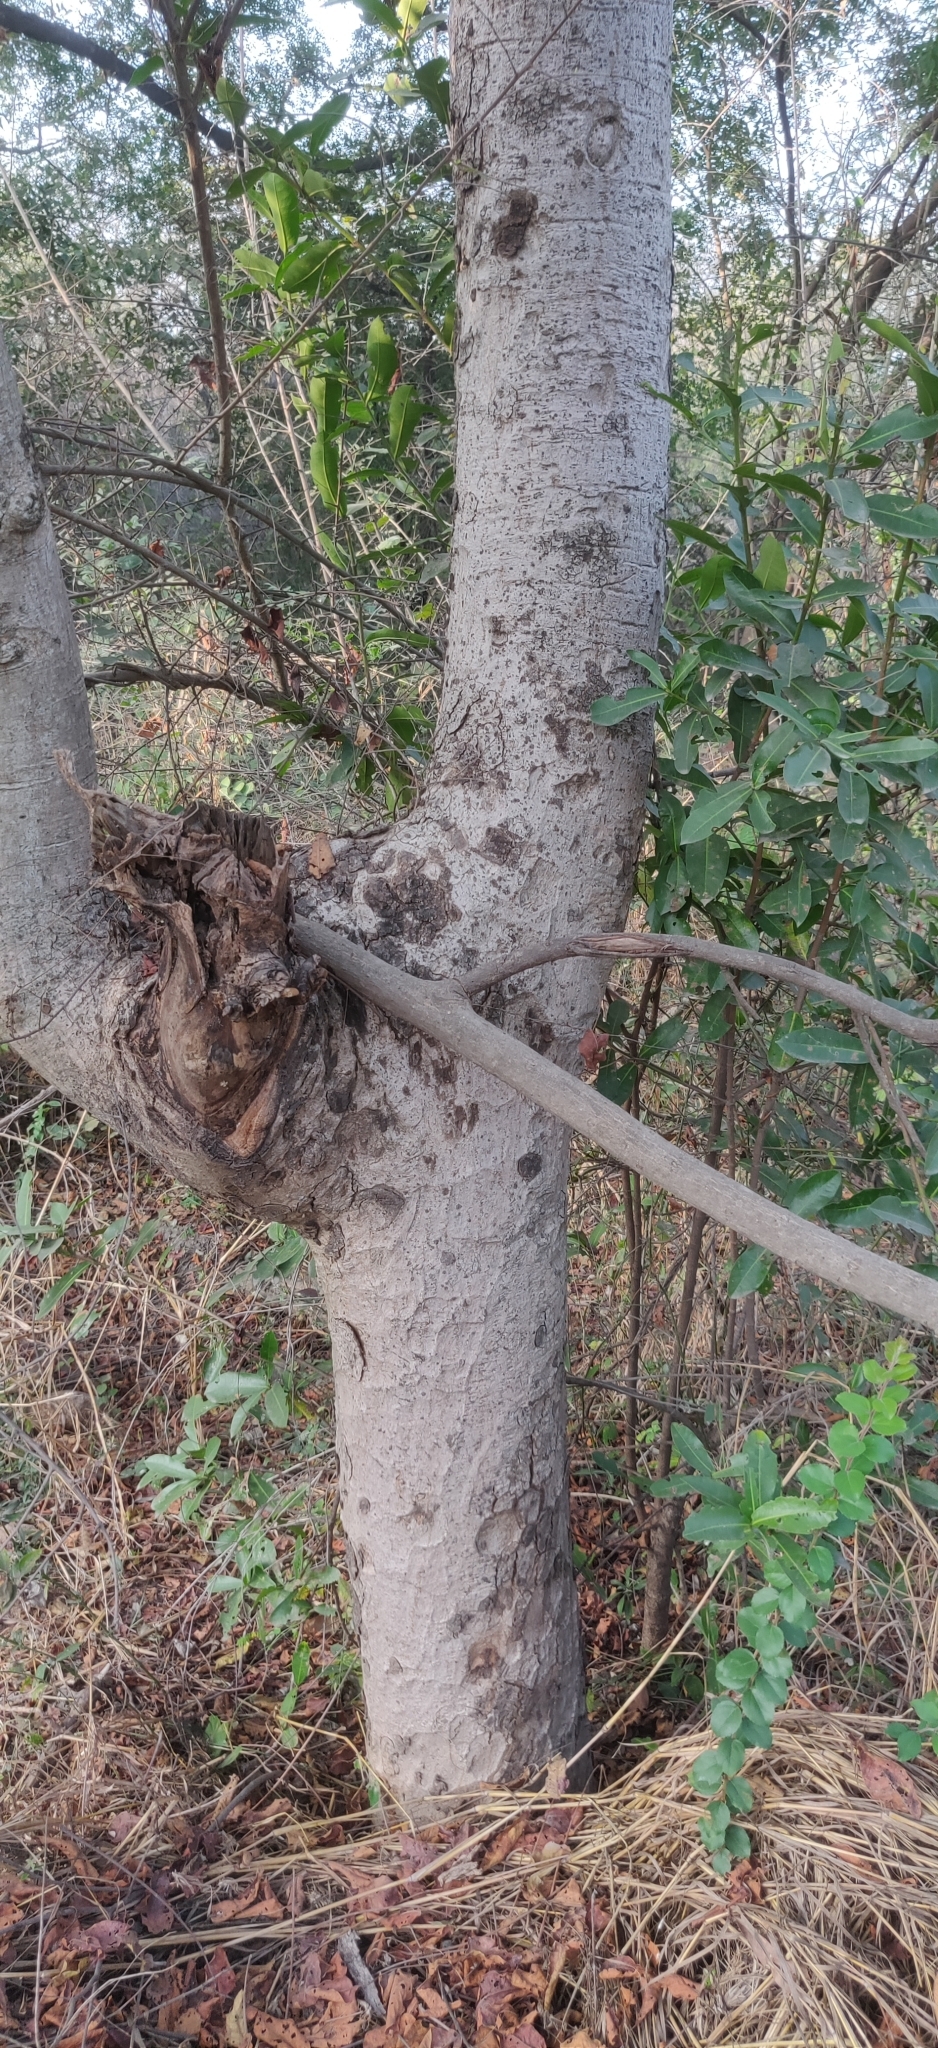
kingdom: Plantae
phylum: Tracheophyta
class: Magnoliopsida
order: Sapindales
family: Anacardiaceae
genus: Lannea
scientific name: Lannea coromandelica
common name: Indian ash tree
